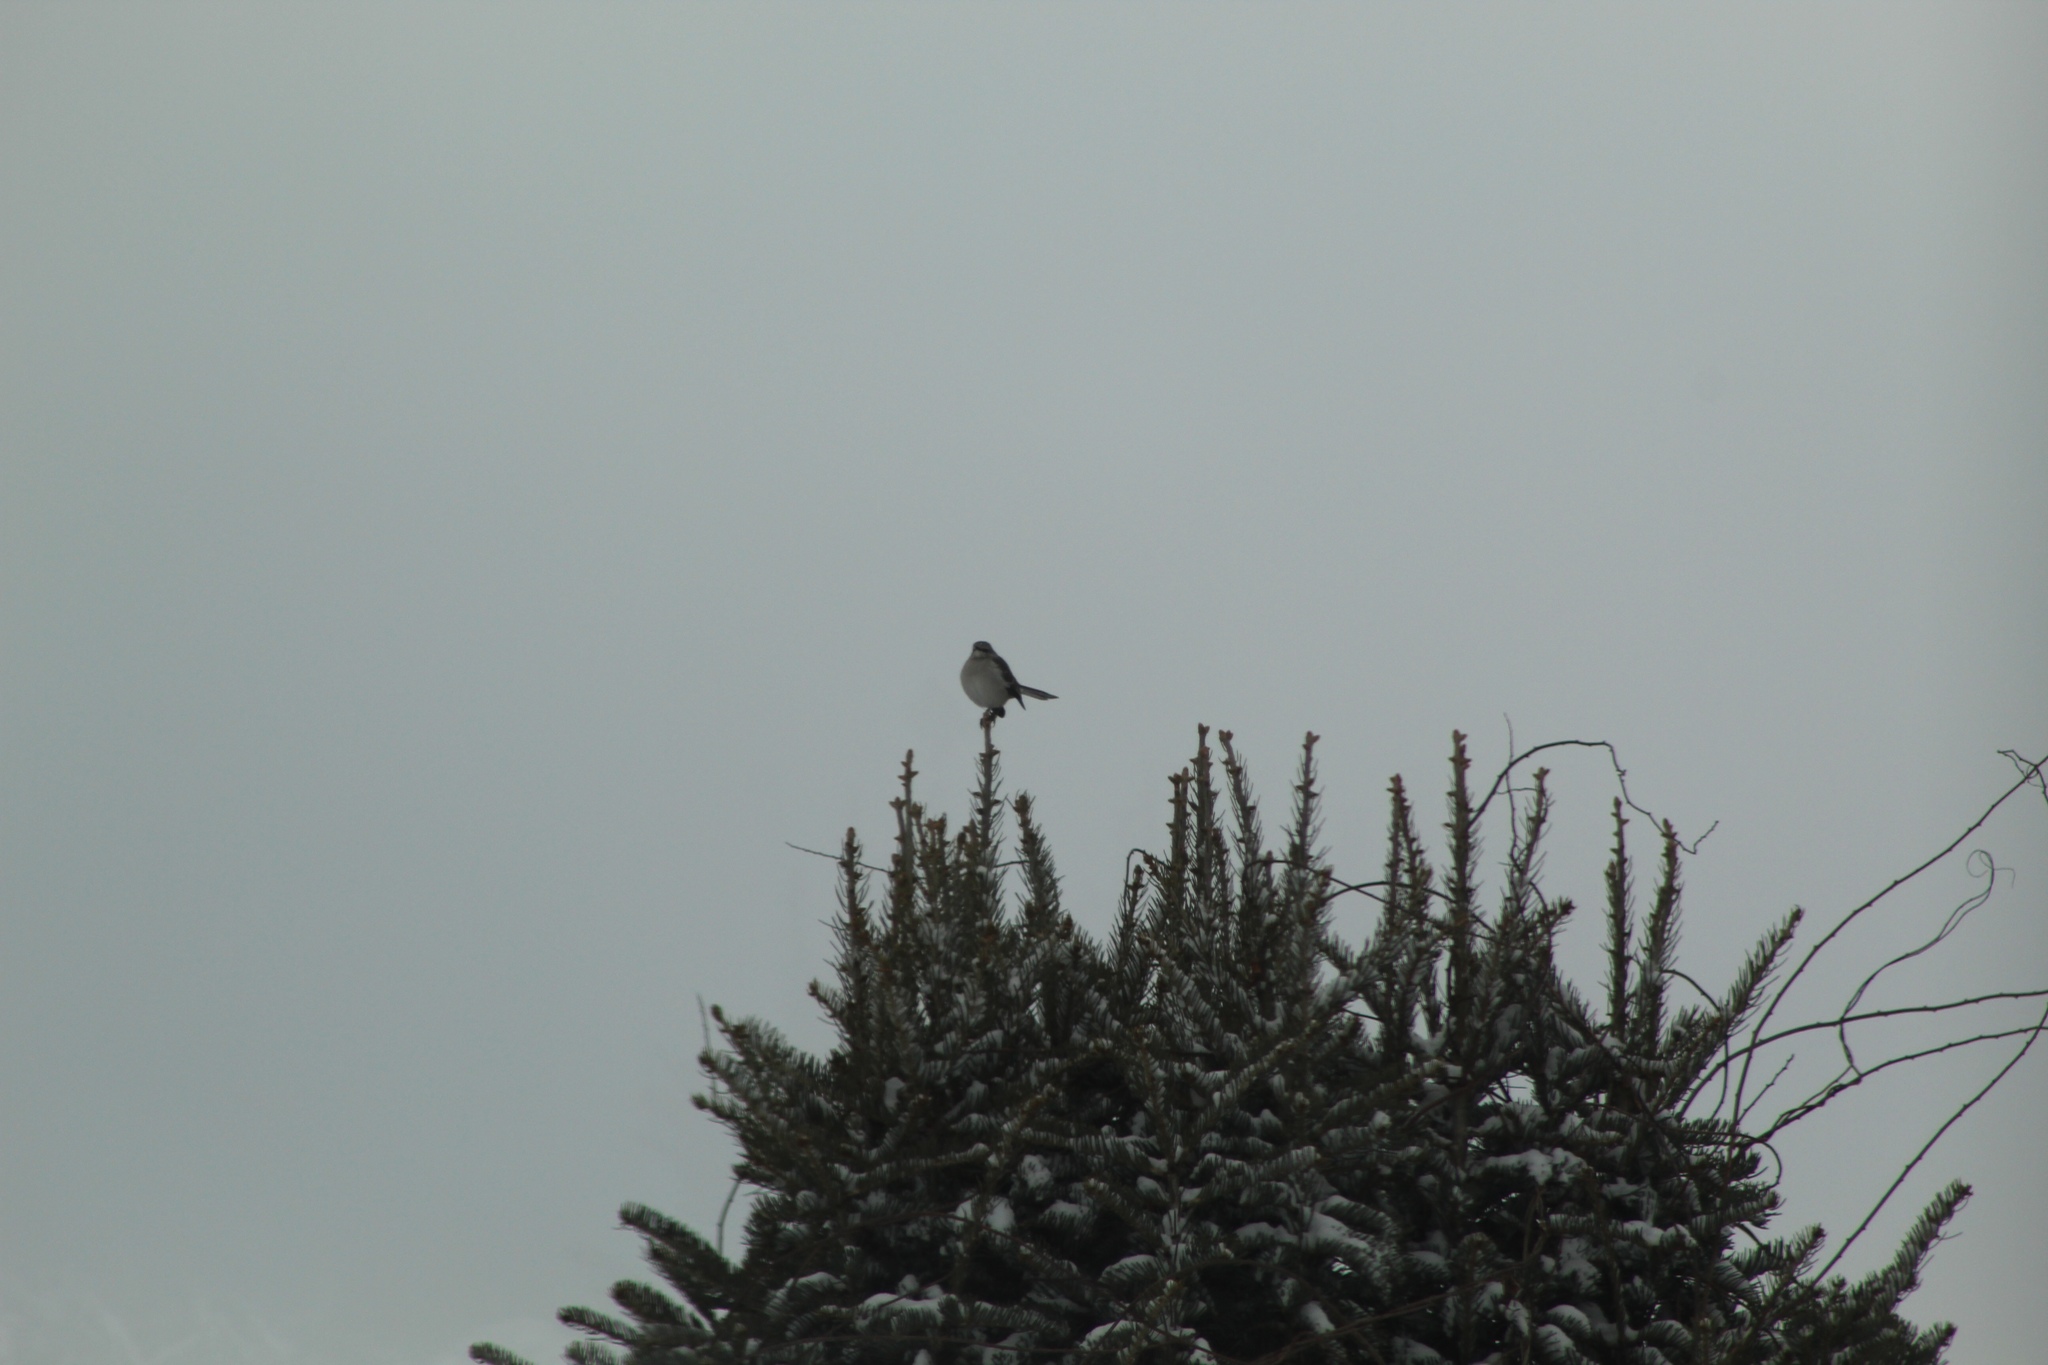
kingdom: Animalia
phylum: Chordata
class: Aves
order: Passeriformes
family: Mimidae
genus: Mimus
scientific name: Mimus polyglottos
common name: Northern mockingbird
